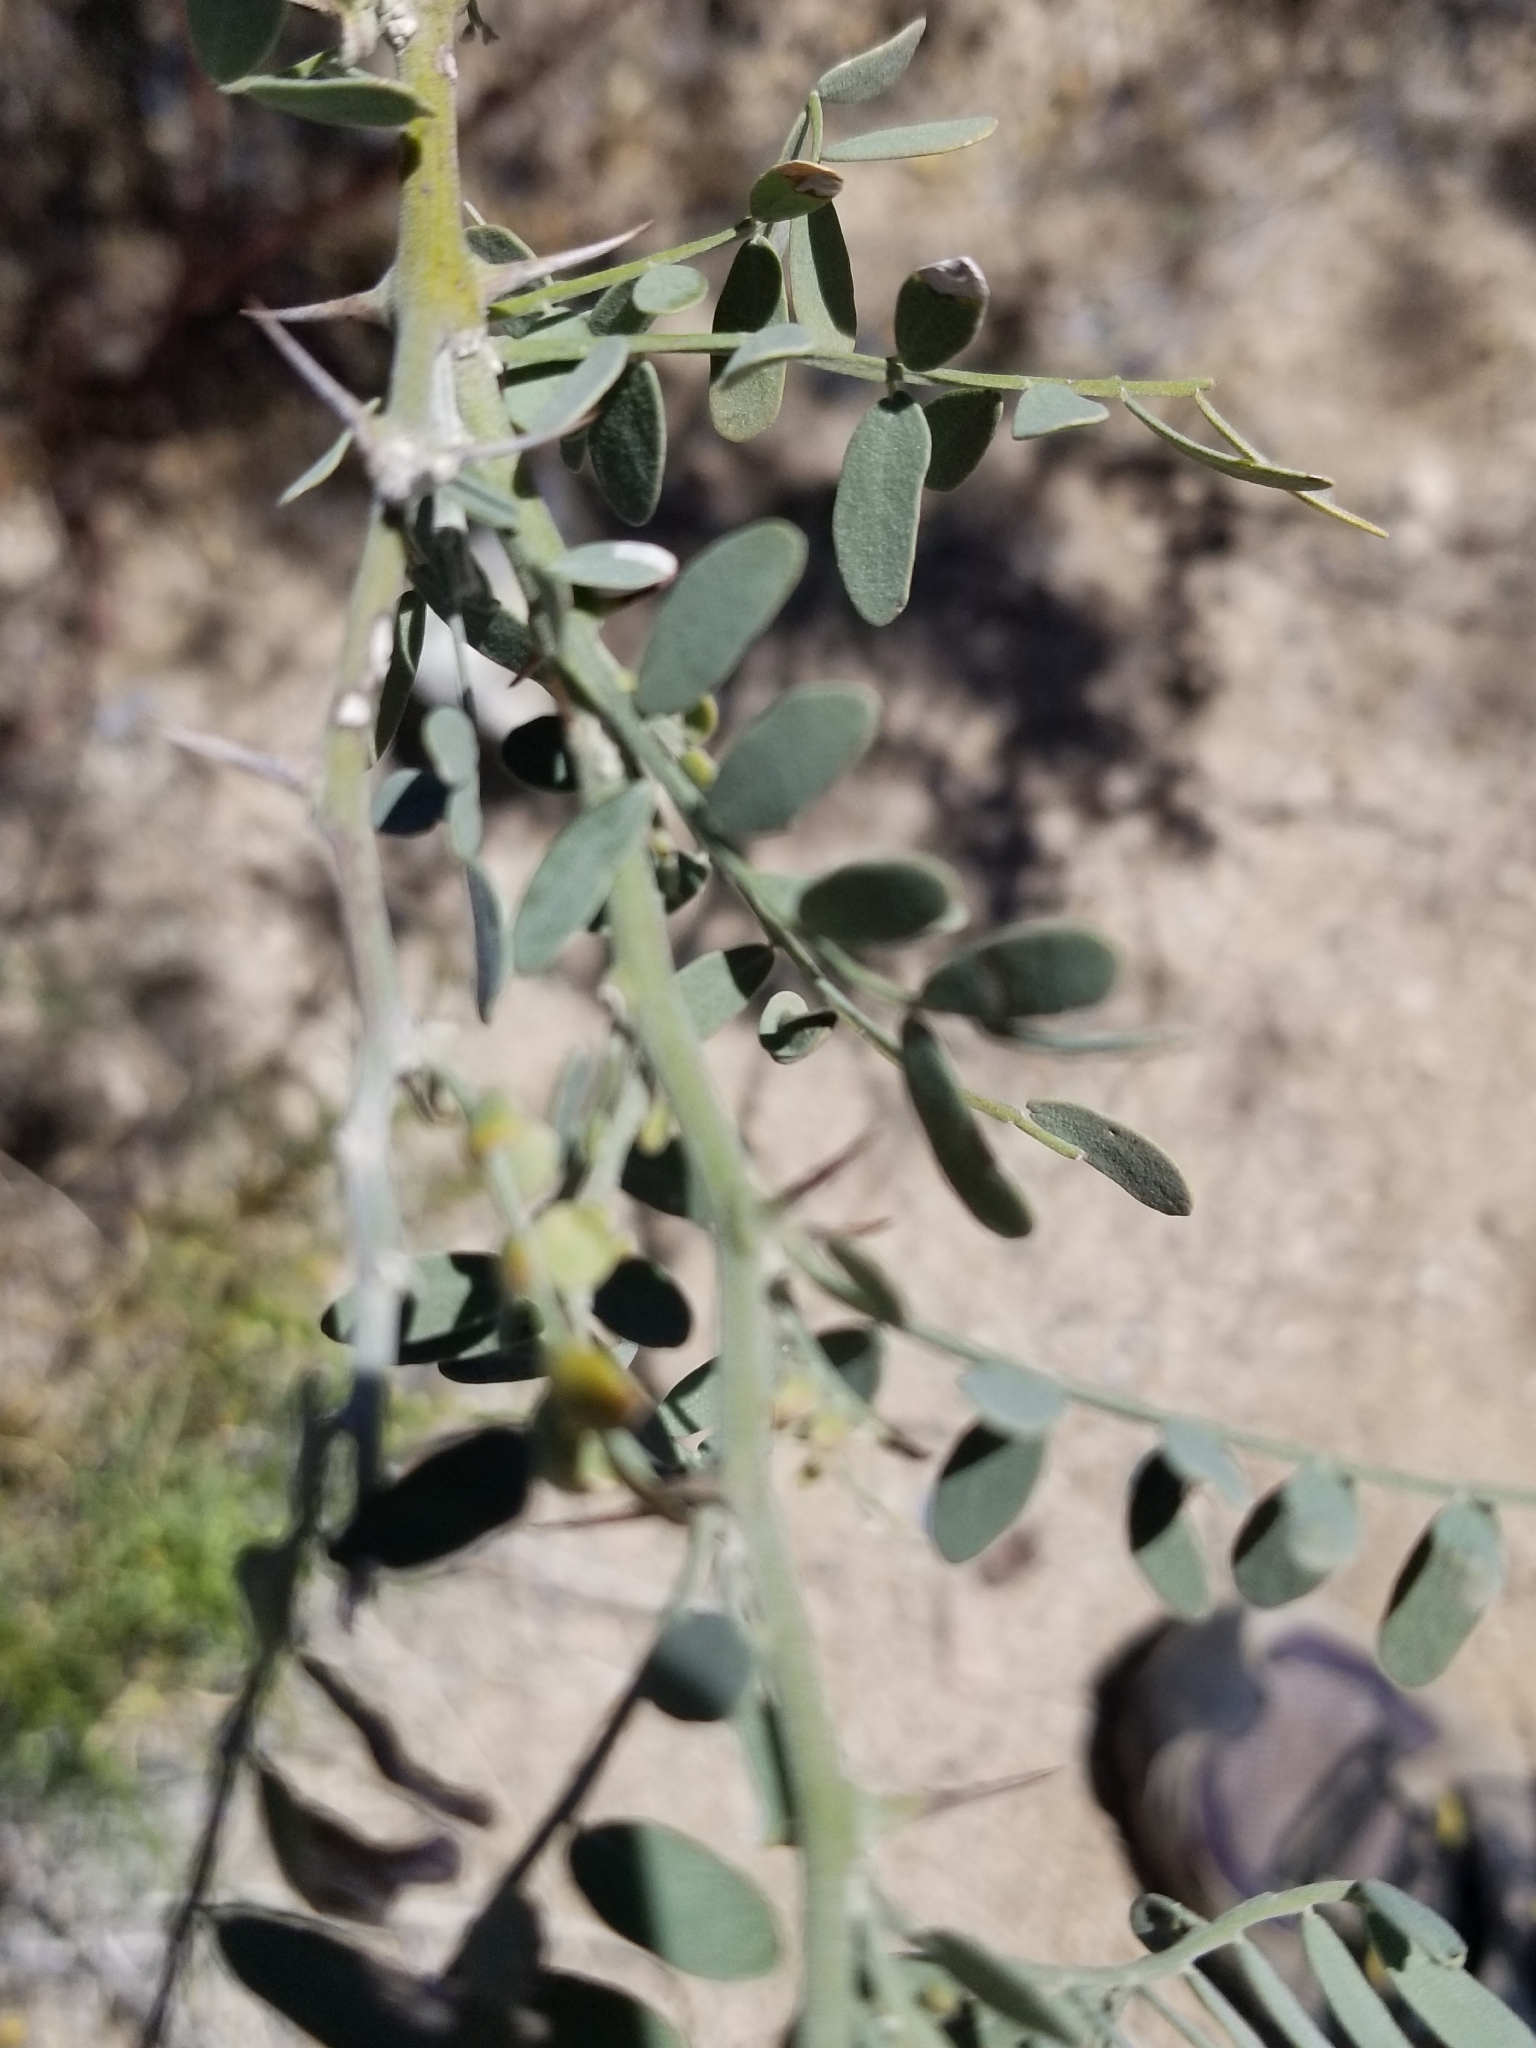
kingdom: Plantae
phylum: Tracheophyta
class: Magnoliopsida
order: Fabales
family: Fabaceae
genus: Olneya
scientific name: Olneya tesota
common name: Desert ironwood
